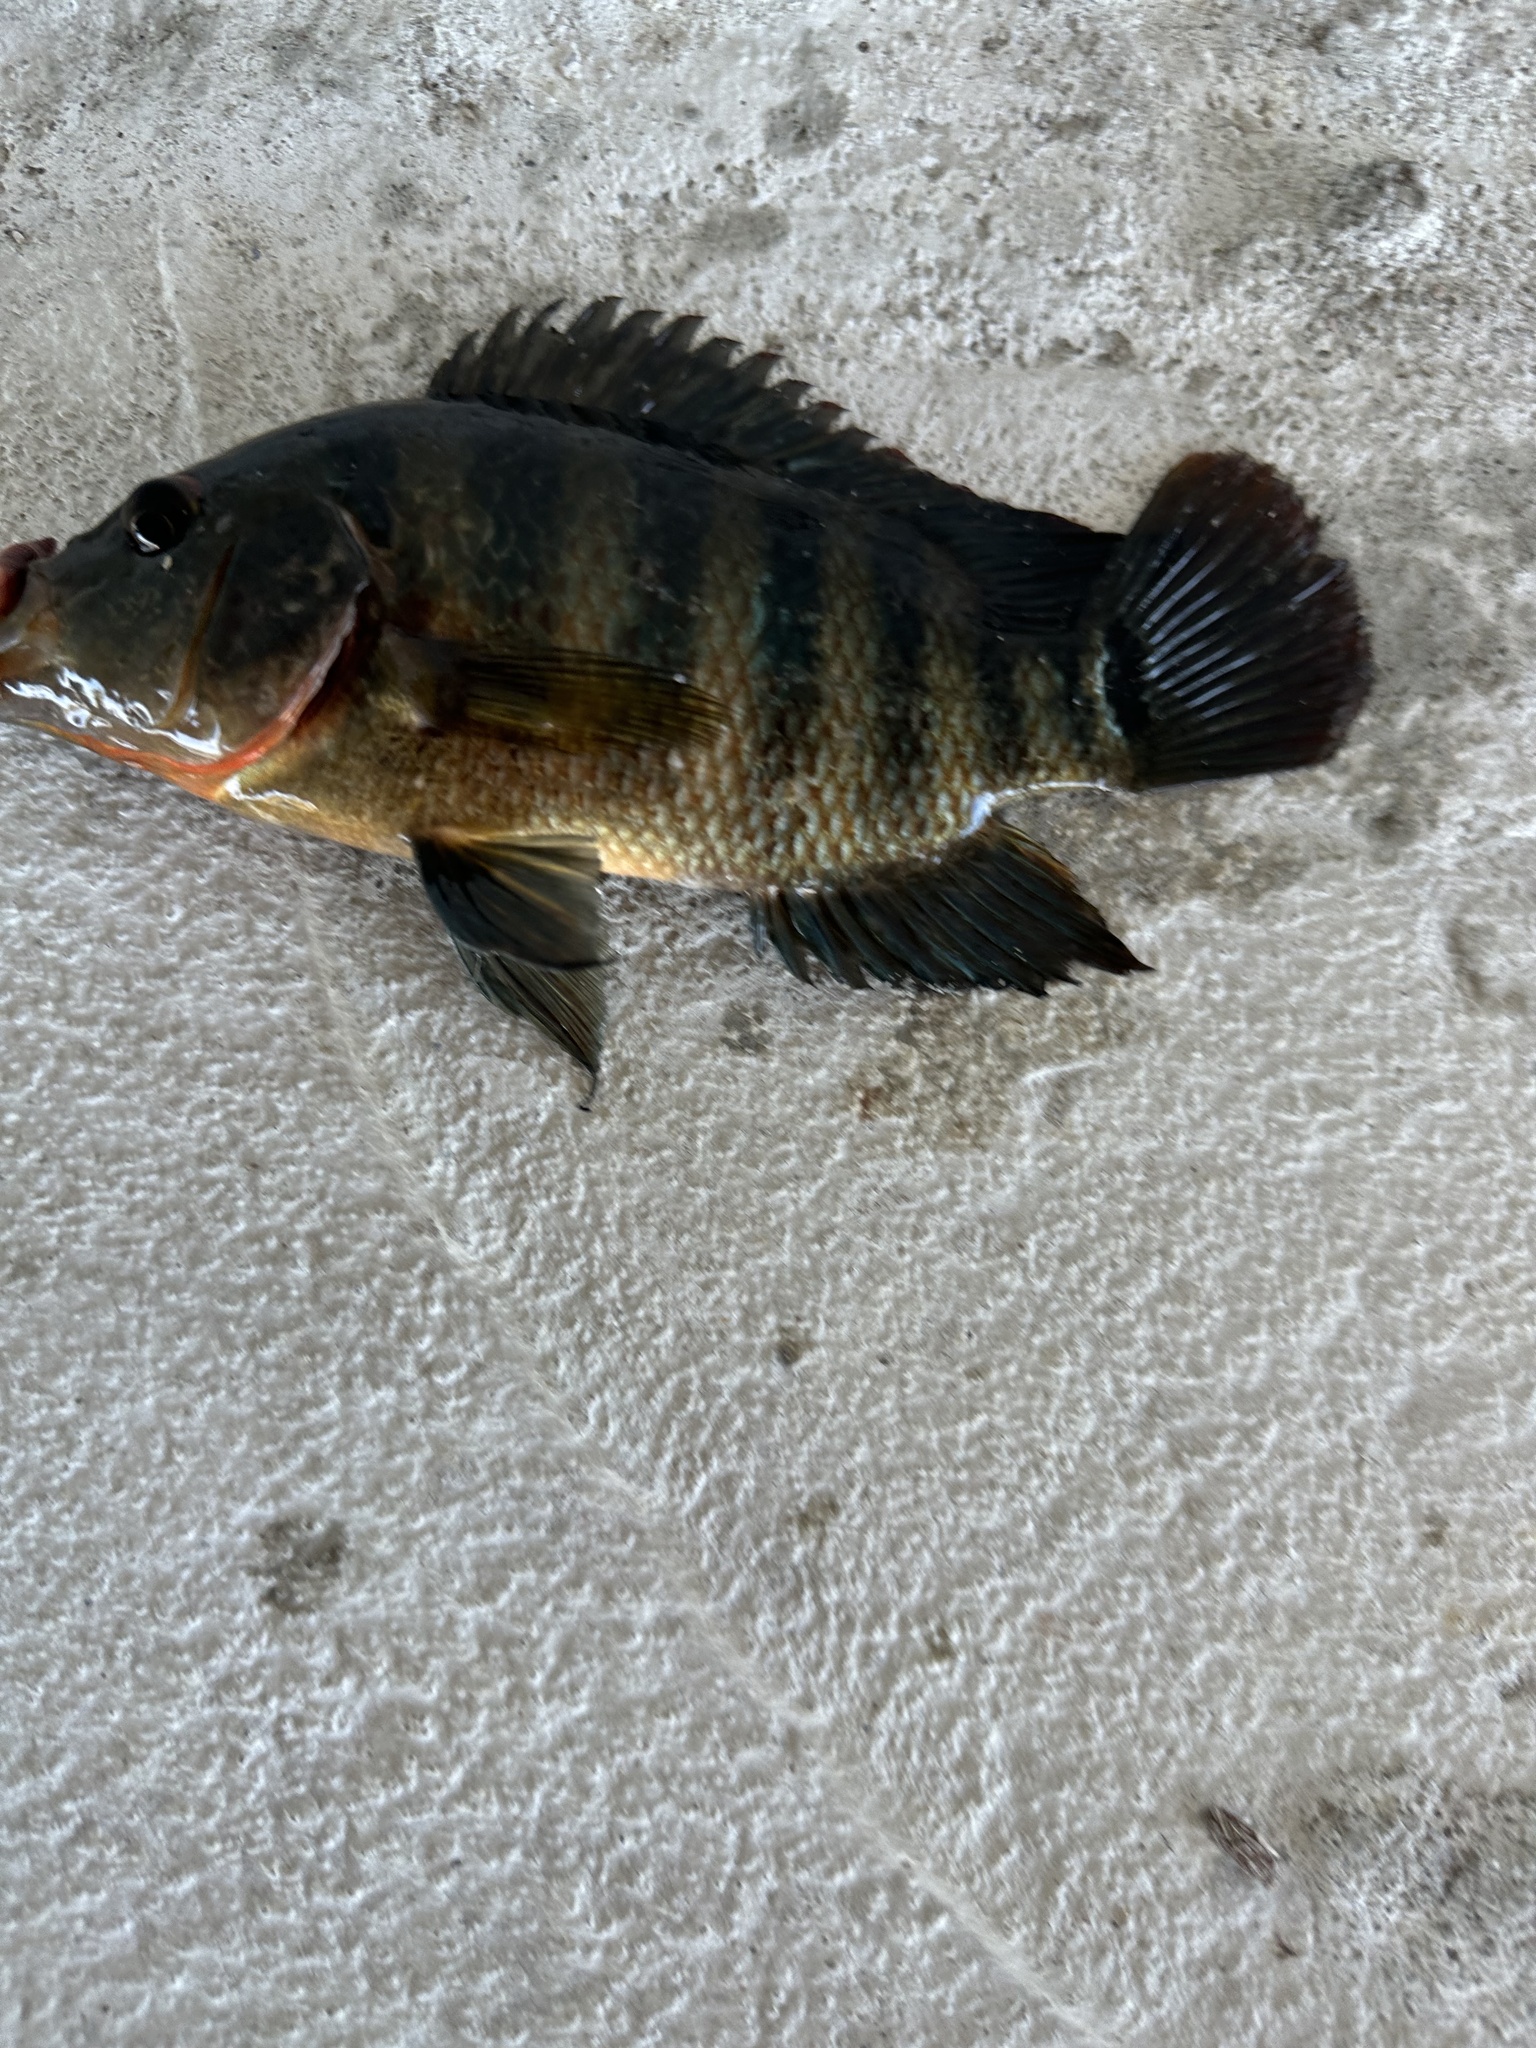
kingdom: Animalia
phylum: Chordata
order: Perciformes
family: Cichlidae
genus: Mayaheros
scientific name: Mayaheros urophthalmus
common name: Mayan cichlid
